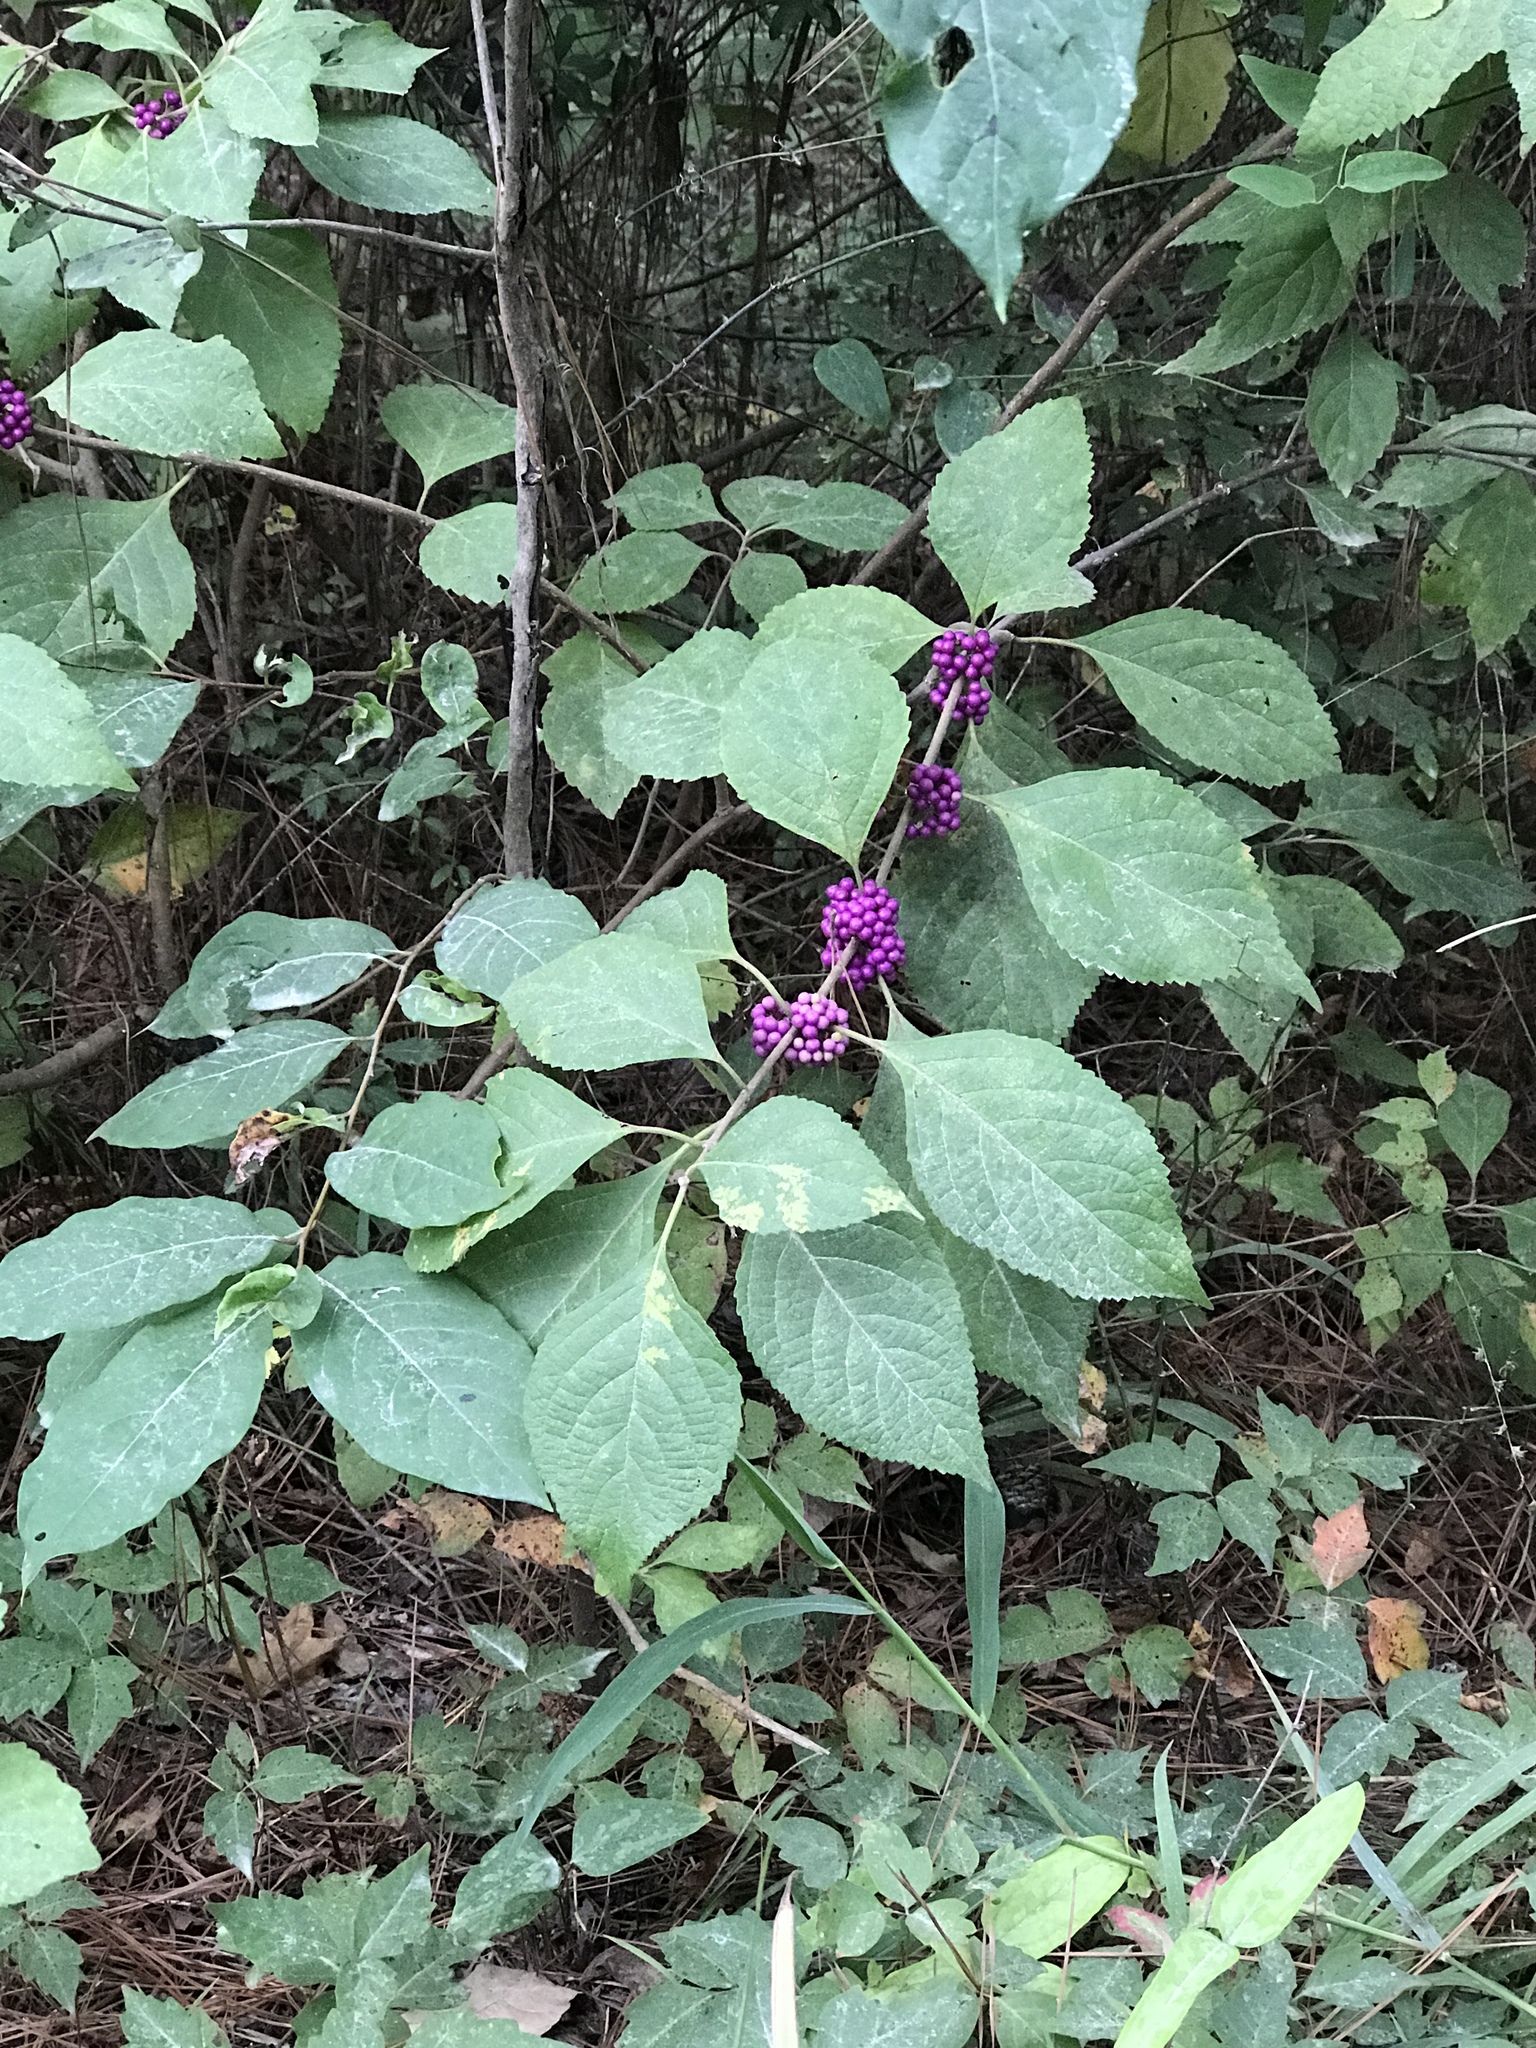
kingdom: Plantae
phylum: Tracheophyta
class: Magnoliopsida
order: Lamiales
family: Lamiaceae
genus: Callicarpa
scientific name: Callicarpa americana
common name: American beautyberry
